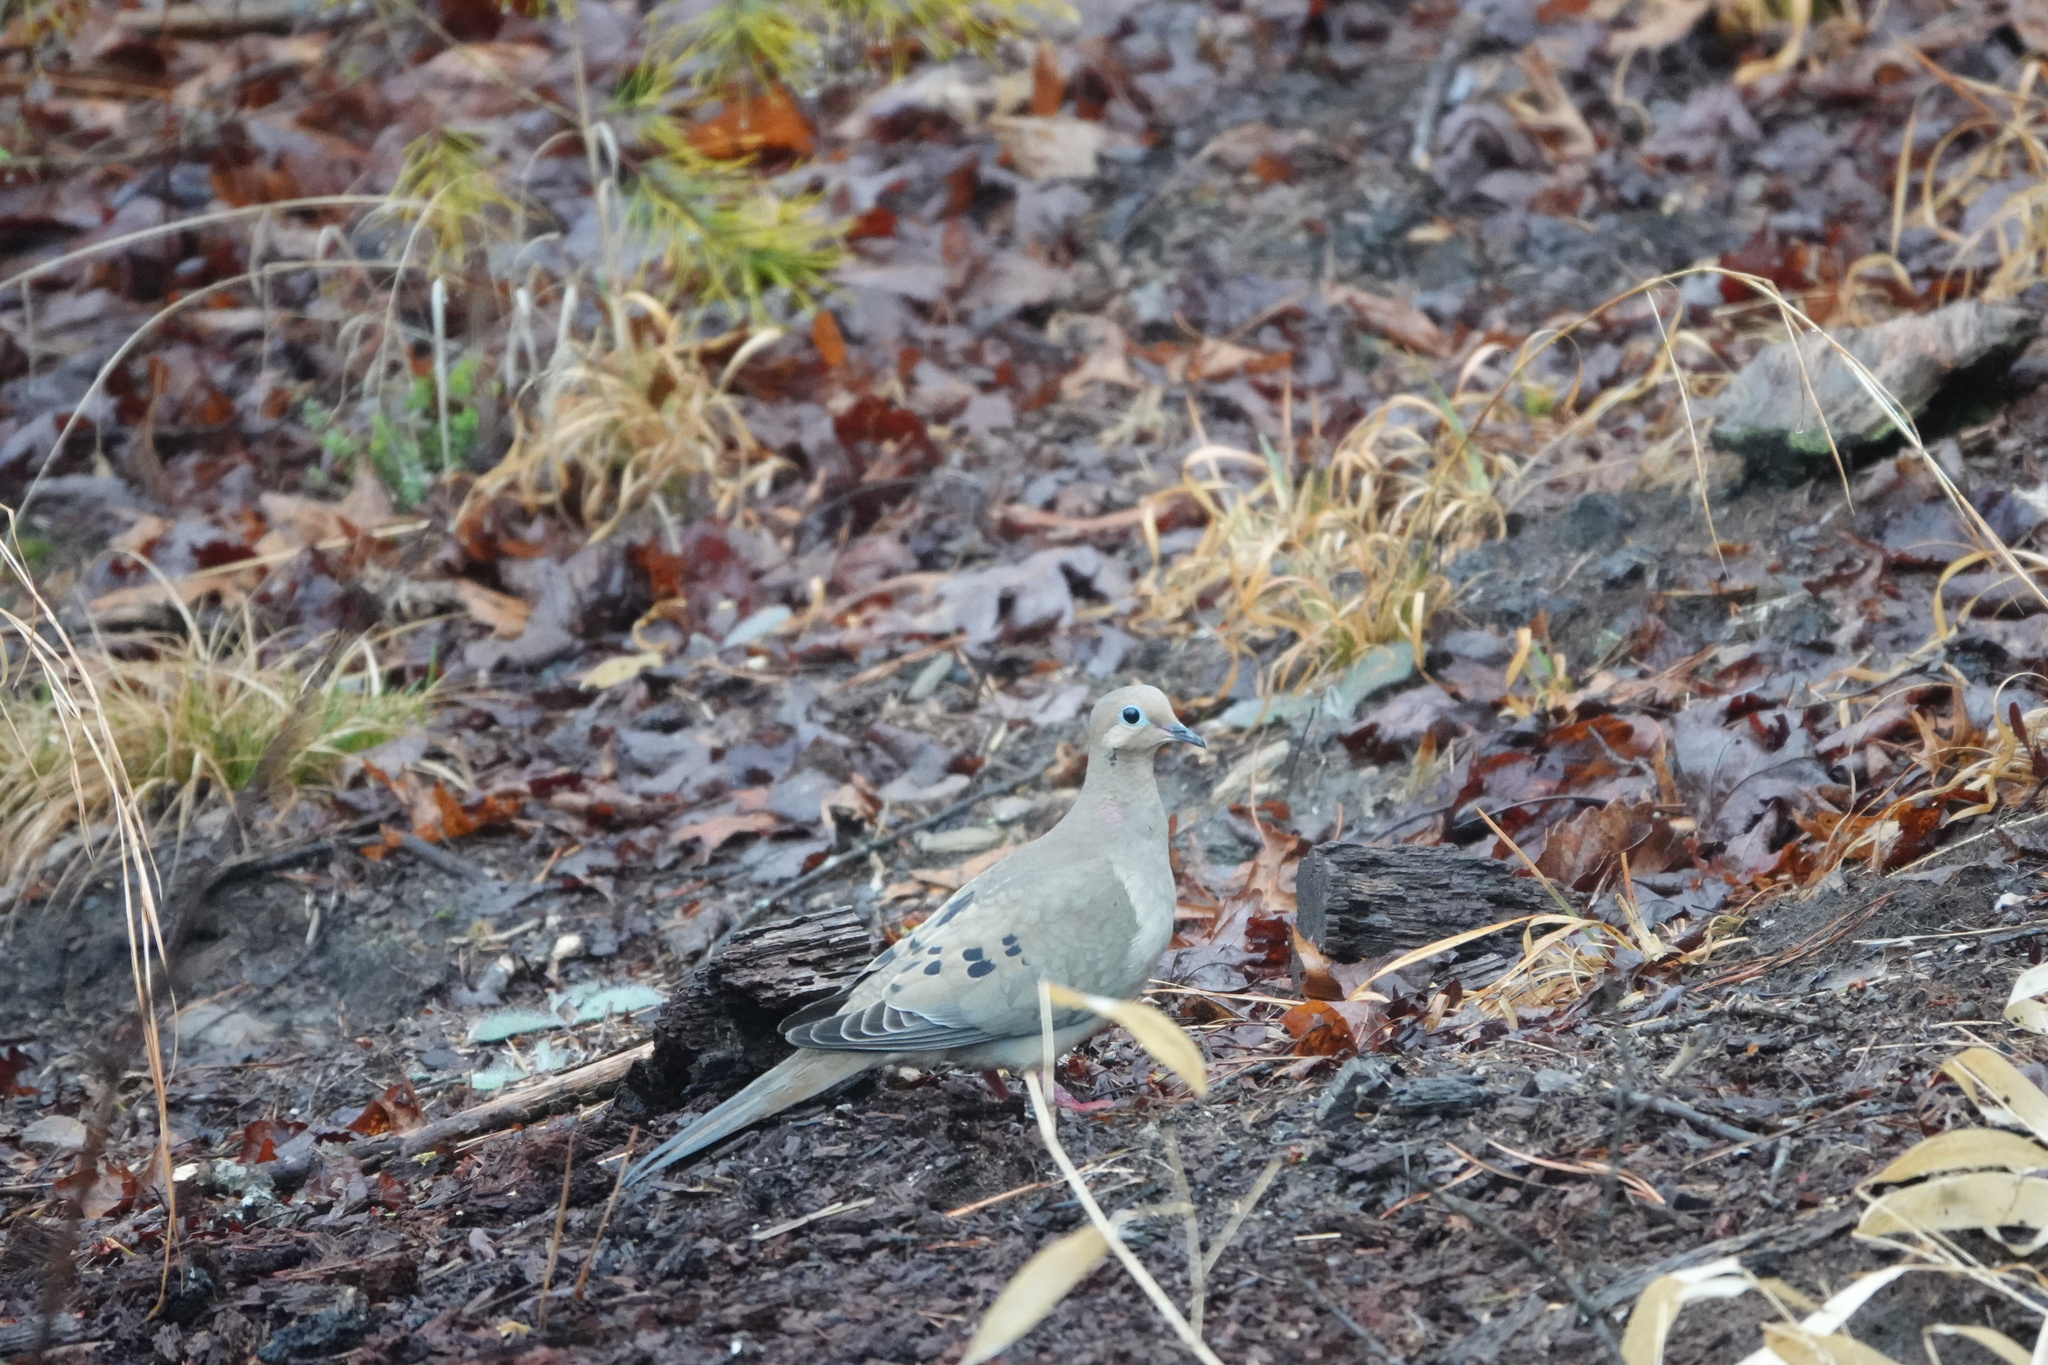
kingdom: Animalia
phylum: Chordata
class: Aves
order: Columbiformes
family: Columbidae
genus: Zenaida
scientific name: Zenaida macroura
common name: Mourning dove
